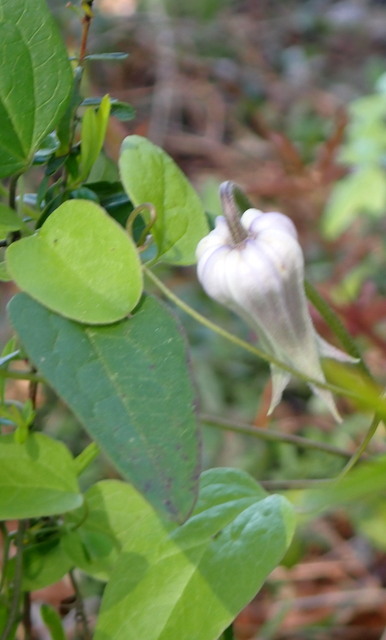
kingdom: Plantae
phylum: Tracheophyta
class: Magnoliopsida
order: Ranunculales
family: Ranunculaceae
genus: Clematis
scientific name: Clematis crispa
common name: Curly clematis
